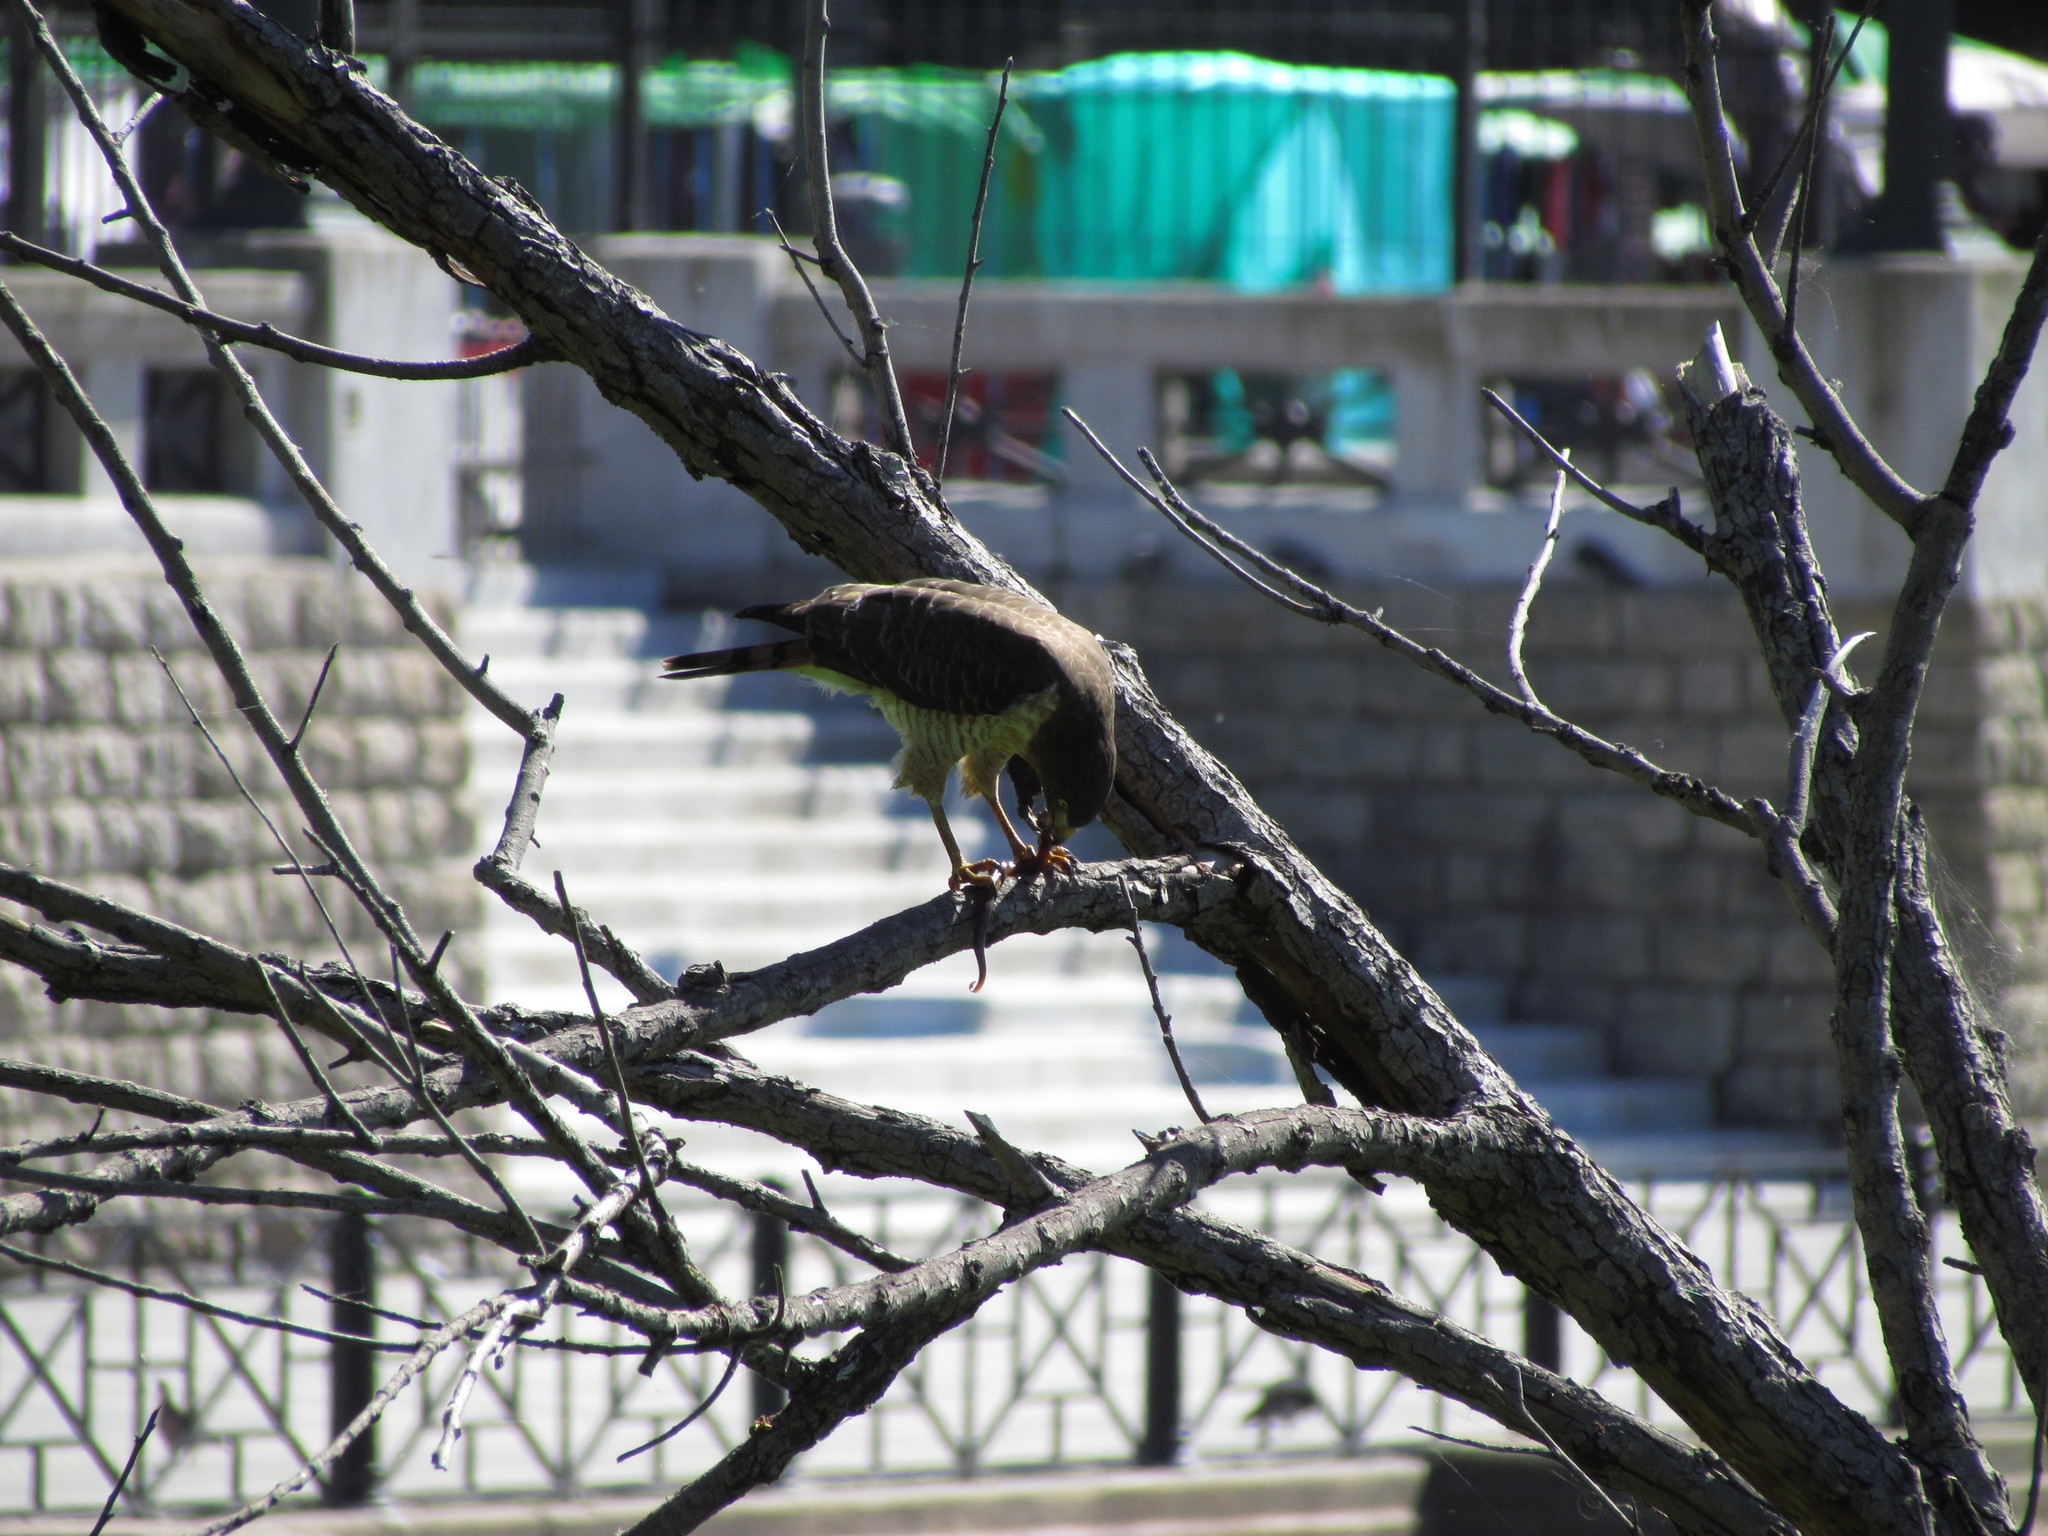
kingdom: Animalia
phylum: Chordata
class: Aves
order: Accipitriformes
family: Accipitridae
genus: Rupornis
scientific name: Rupornis magnirostris
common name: Roadside hawk
